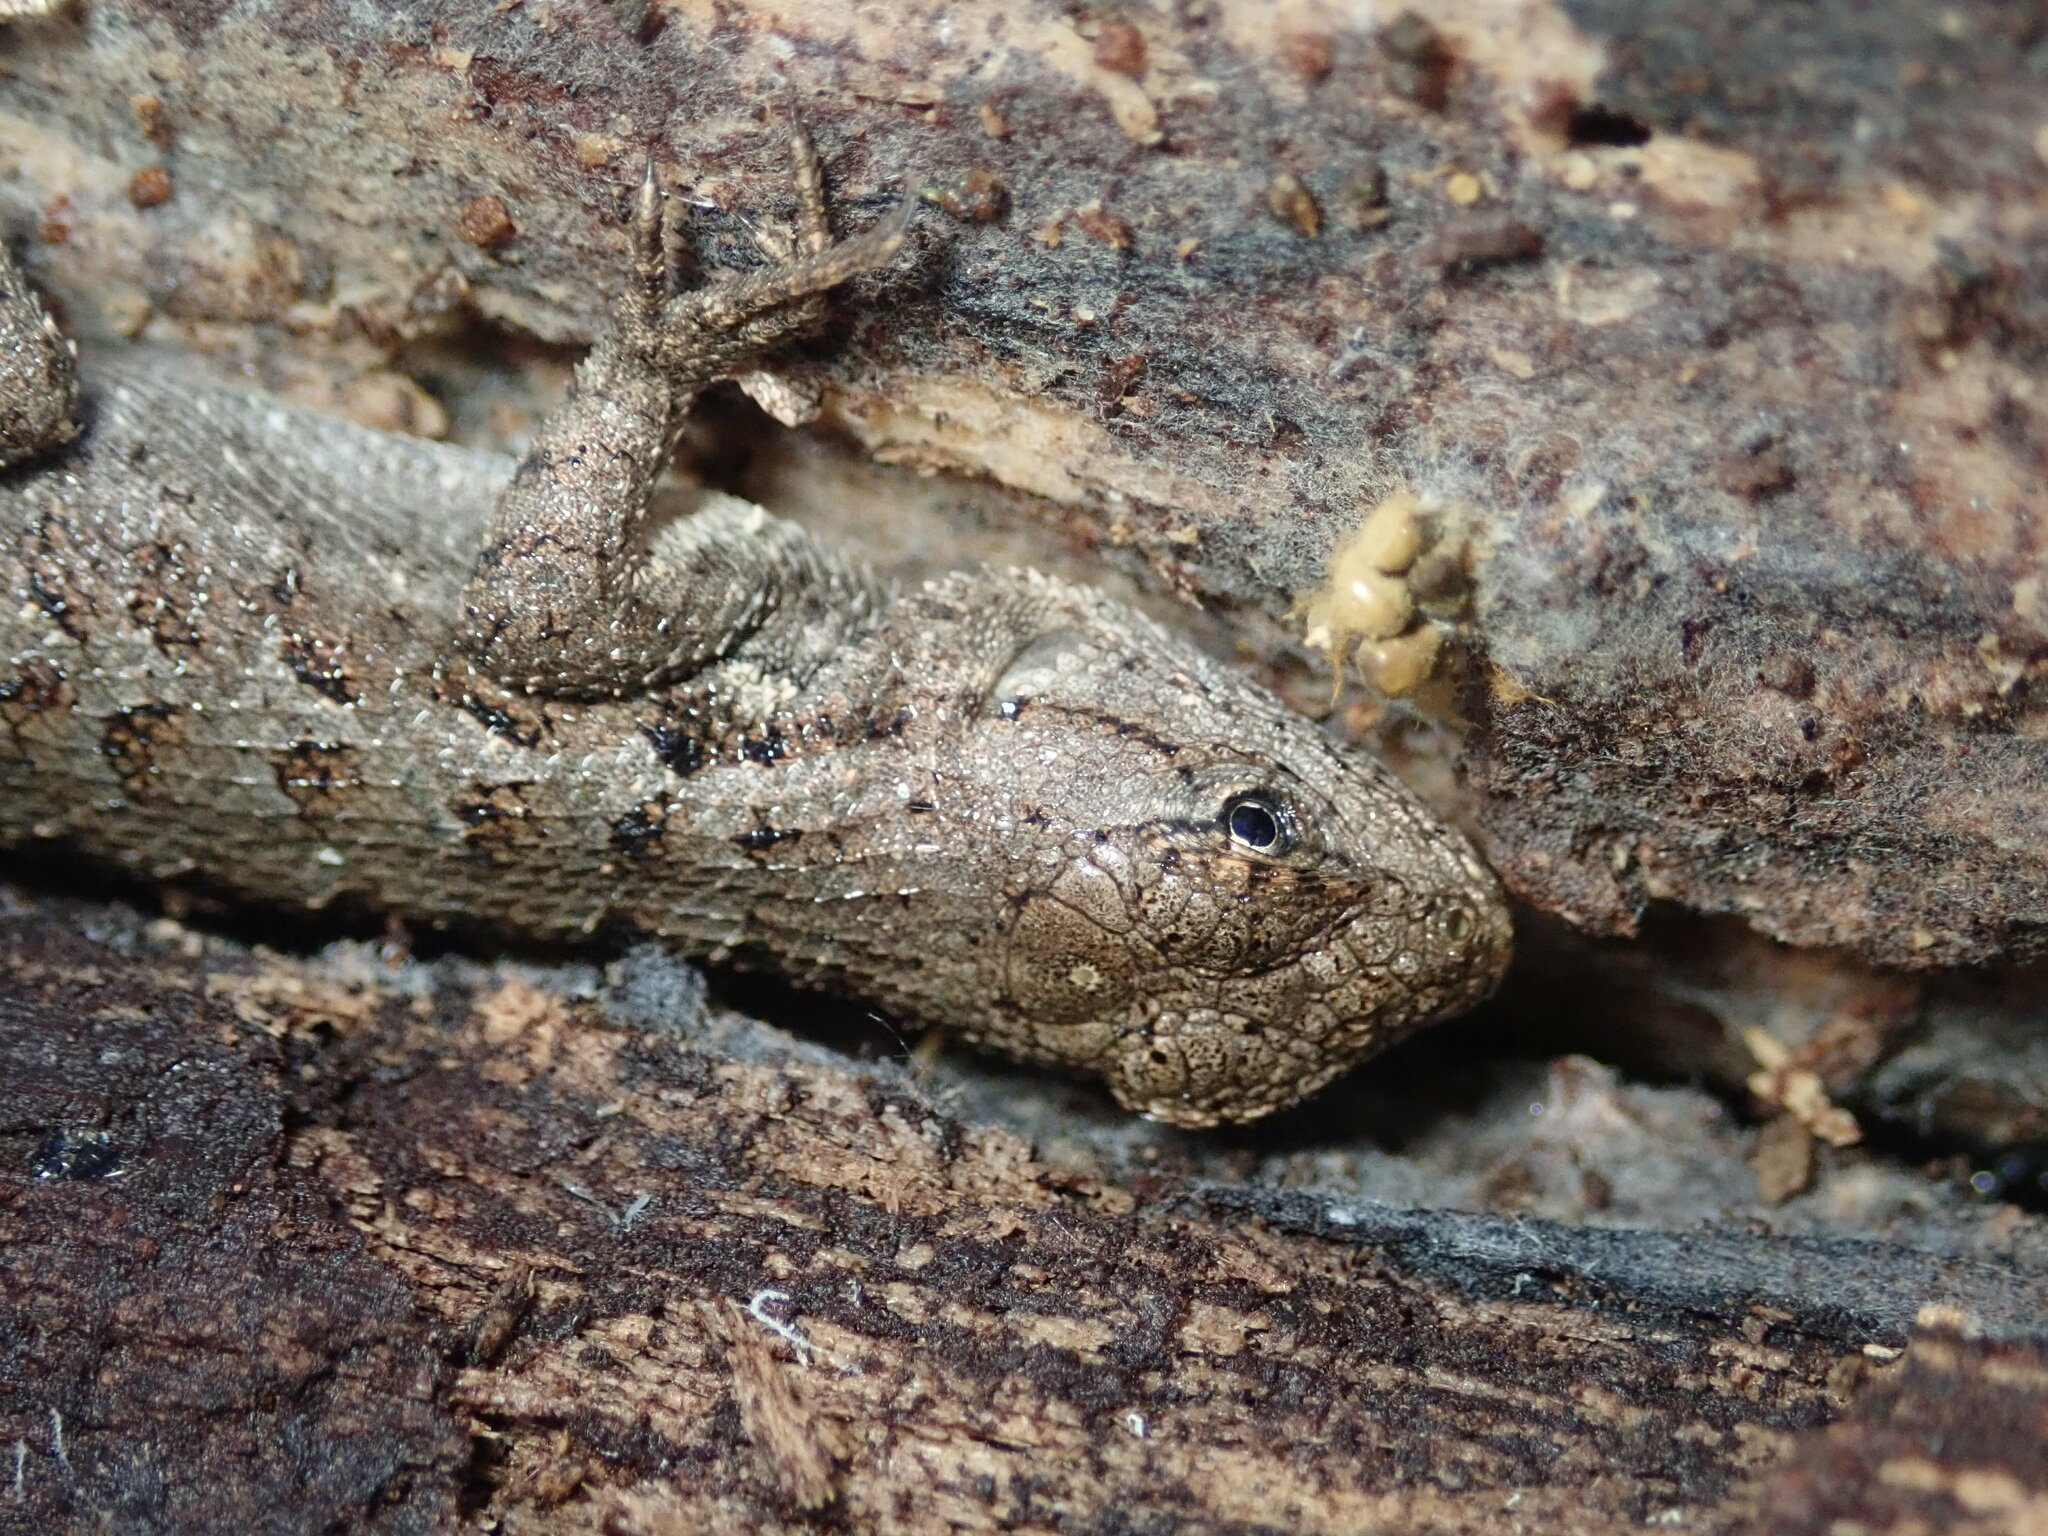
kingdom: Animalia
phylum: Chordata
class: Squamata
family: Phrynosomatidae
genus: Sceloporus
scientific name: Sceloporus occidentalis
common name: Western fence lizard
